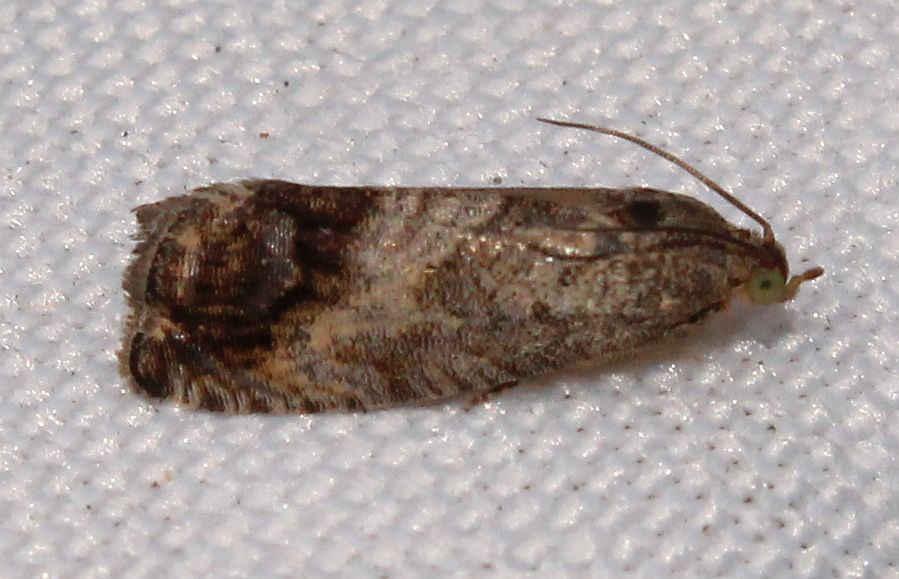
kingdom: Animalia
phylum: Arthropoda
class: Insecta
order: Lepidoptera
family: Tortricidae
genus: Cydia
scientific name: Cydia pomonella
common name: Codling moth
